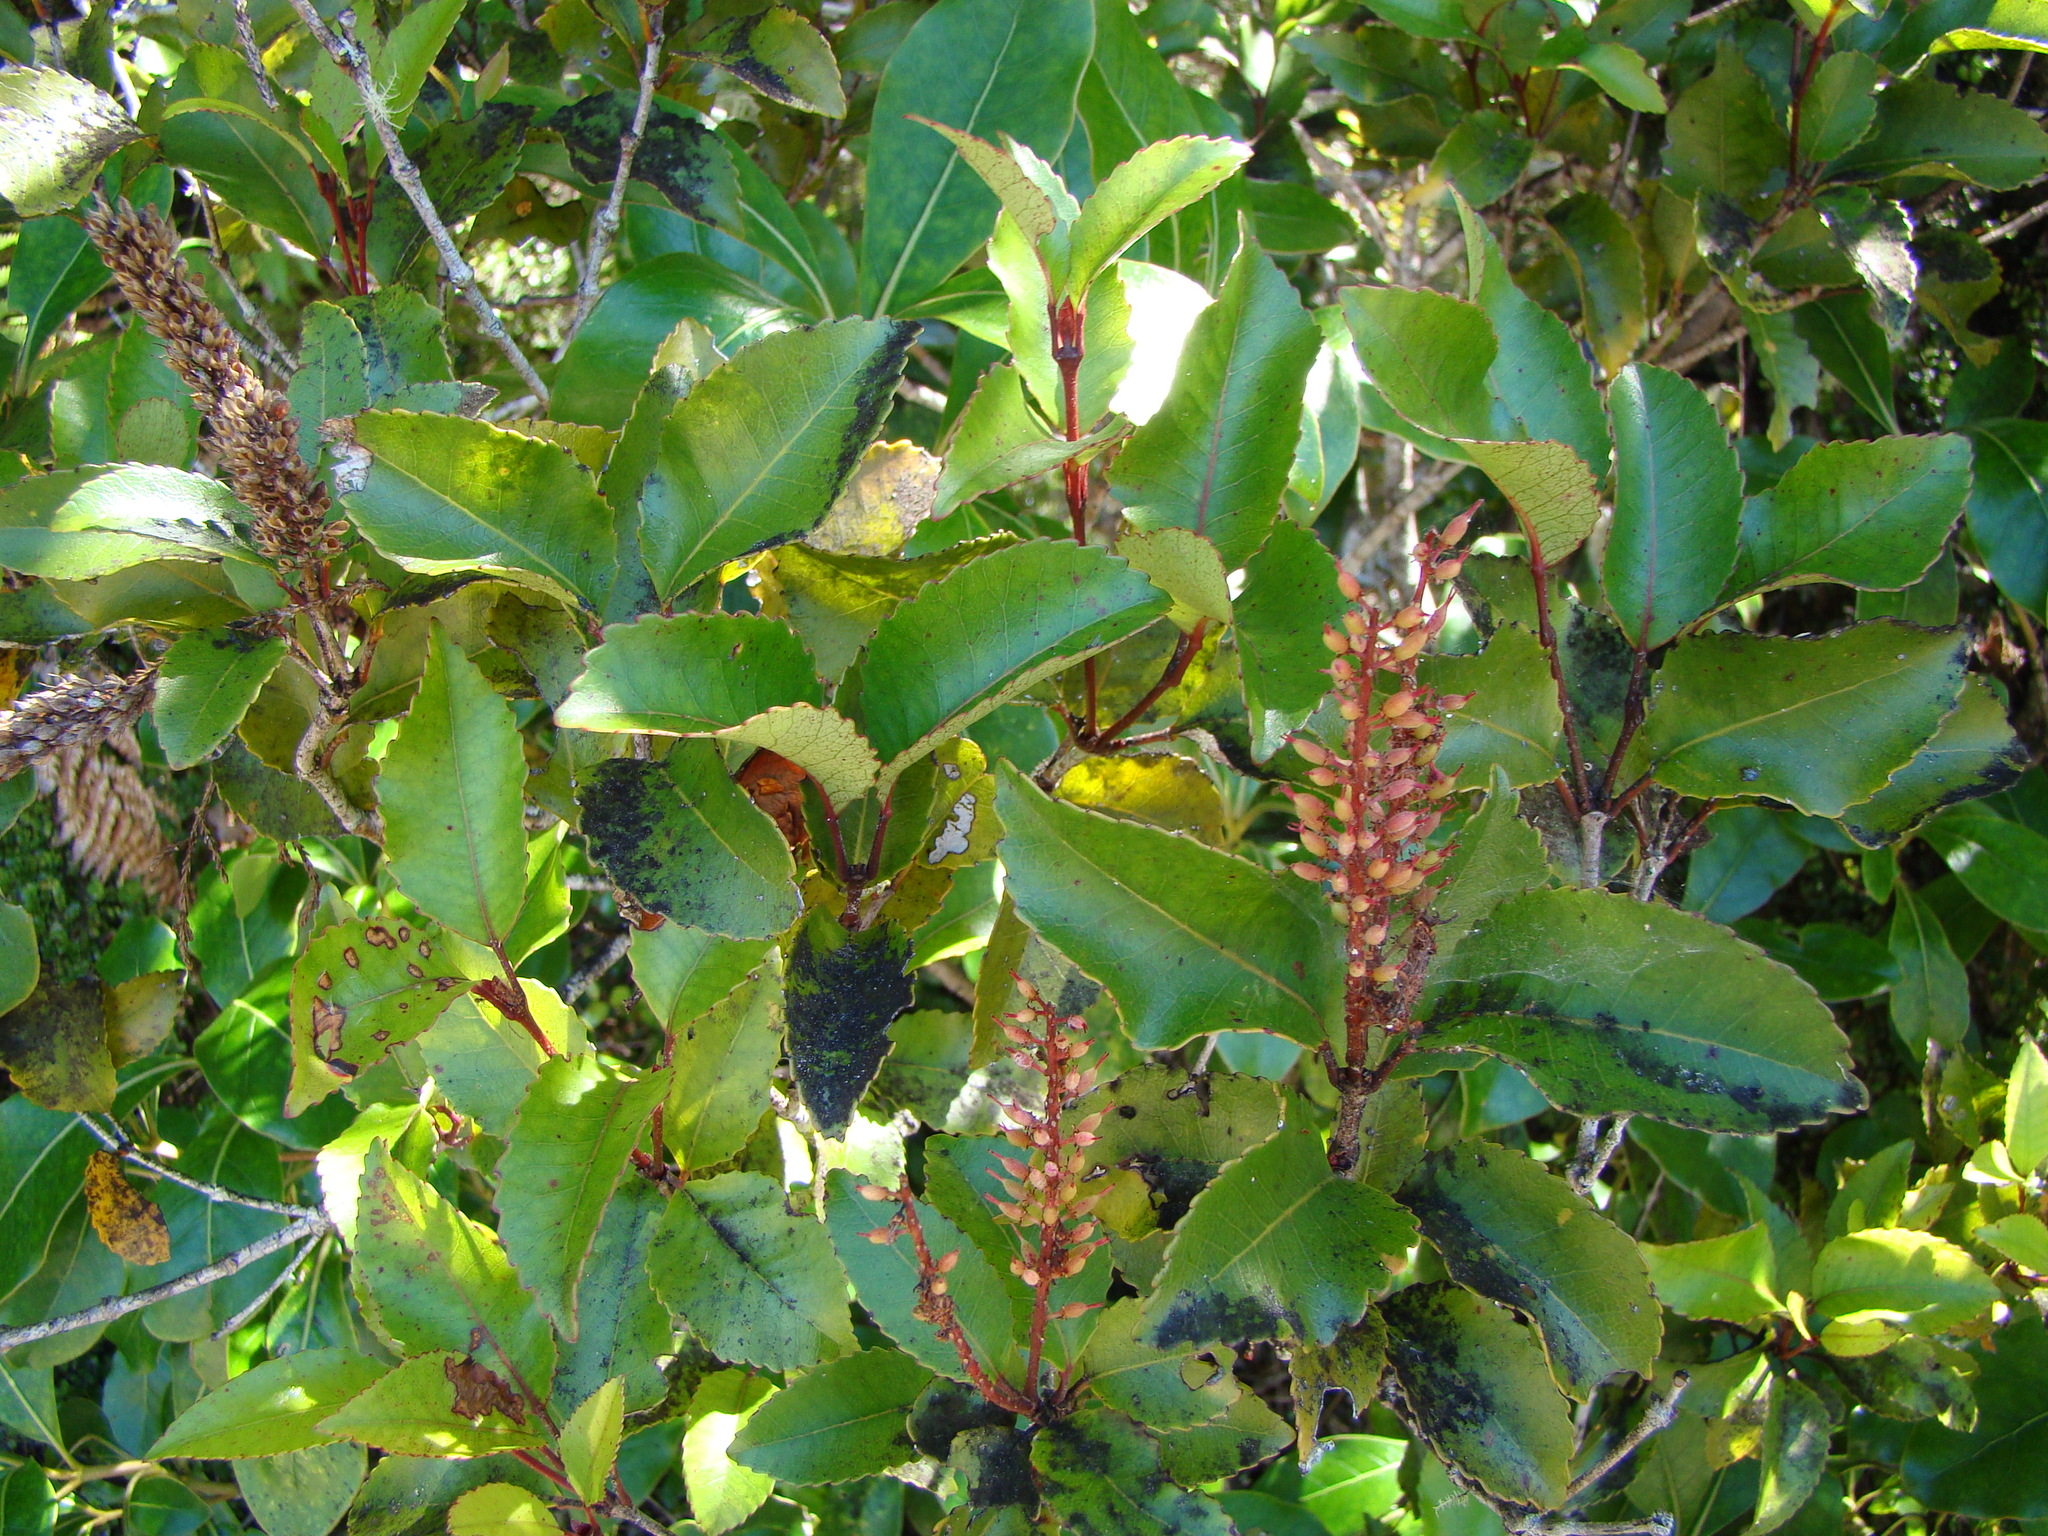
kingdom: Plantae
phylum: Tracheophyta
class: Magnoliopsida
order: Oxalidales
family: Cunoniaceae
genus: Pterophylla
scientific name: Pterophylla racemosa
